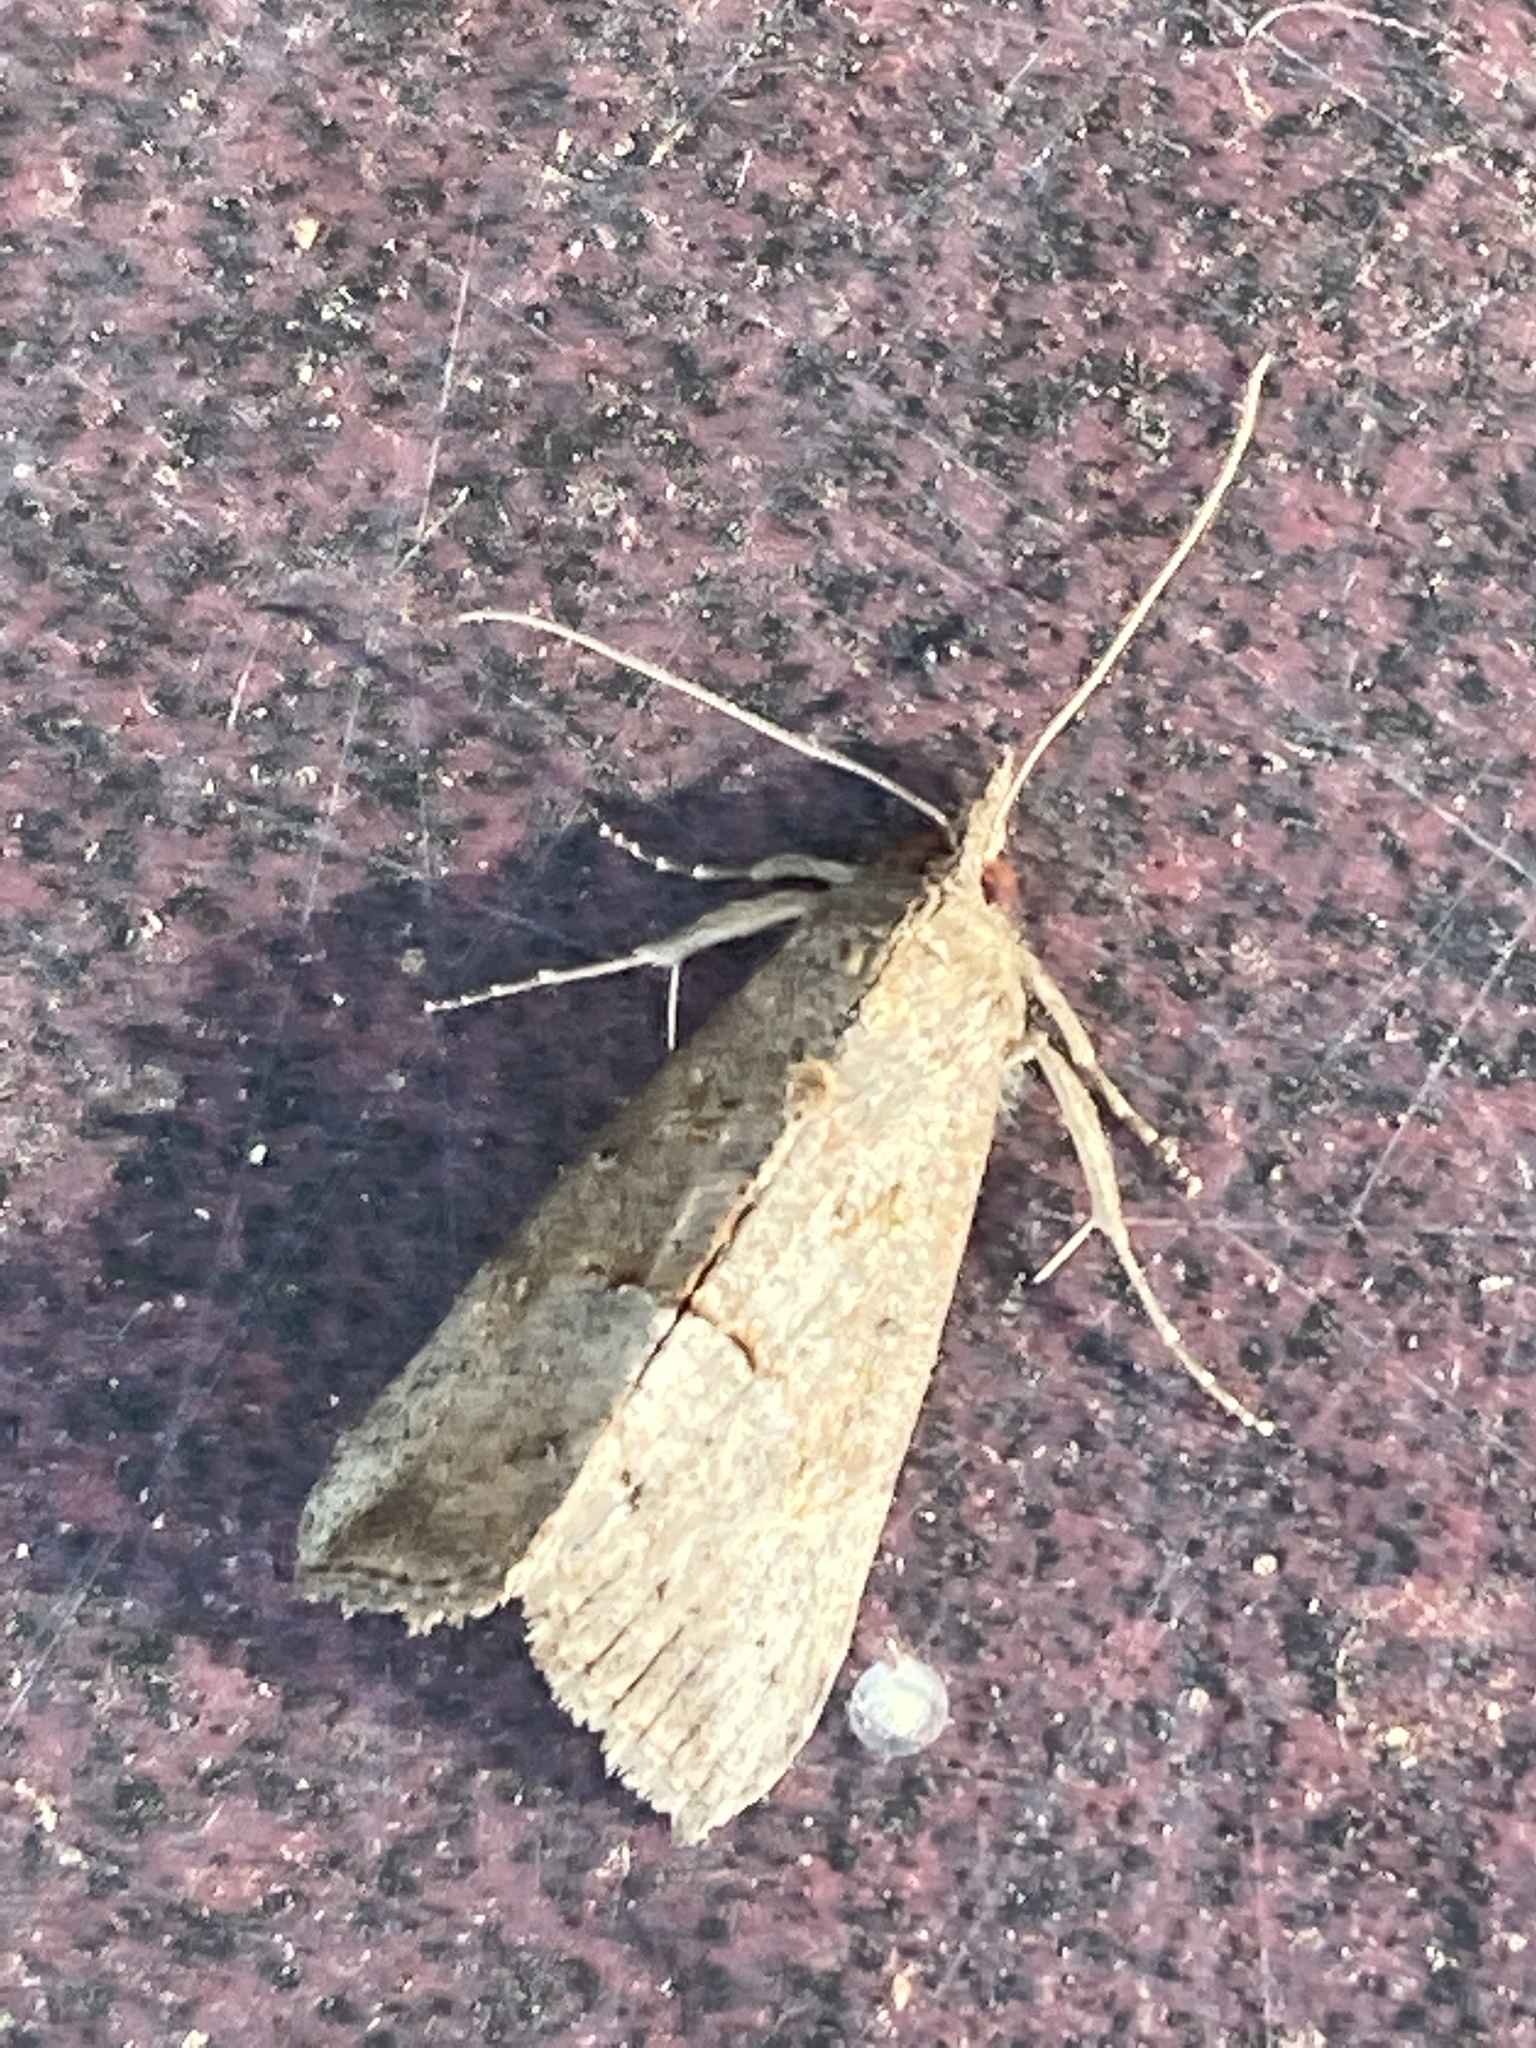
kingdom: Animalia
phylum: Arthropoda
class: Insecta
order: Lepidoptera
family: Erebidae
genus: Hypena
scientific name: Hypena scabra
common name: Green cloverworm
